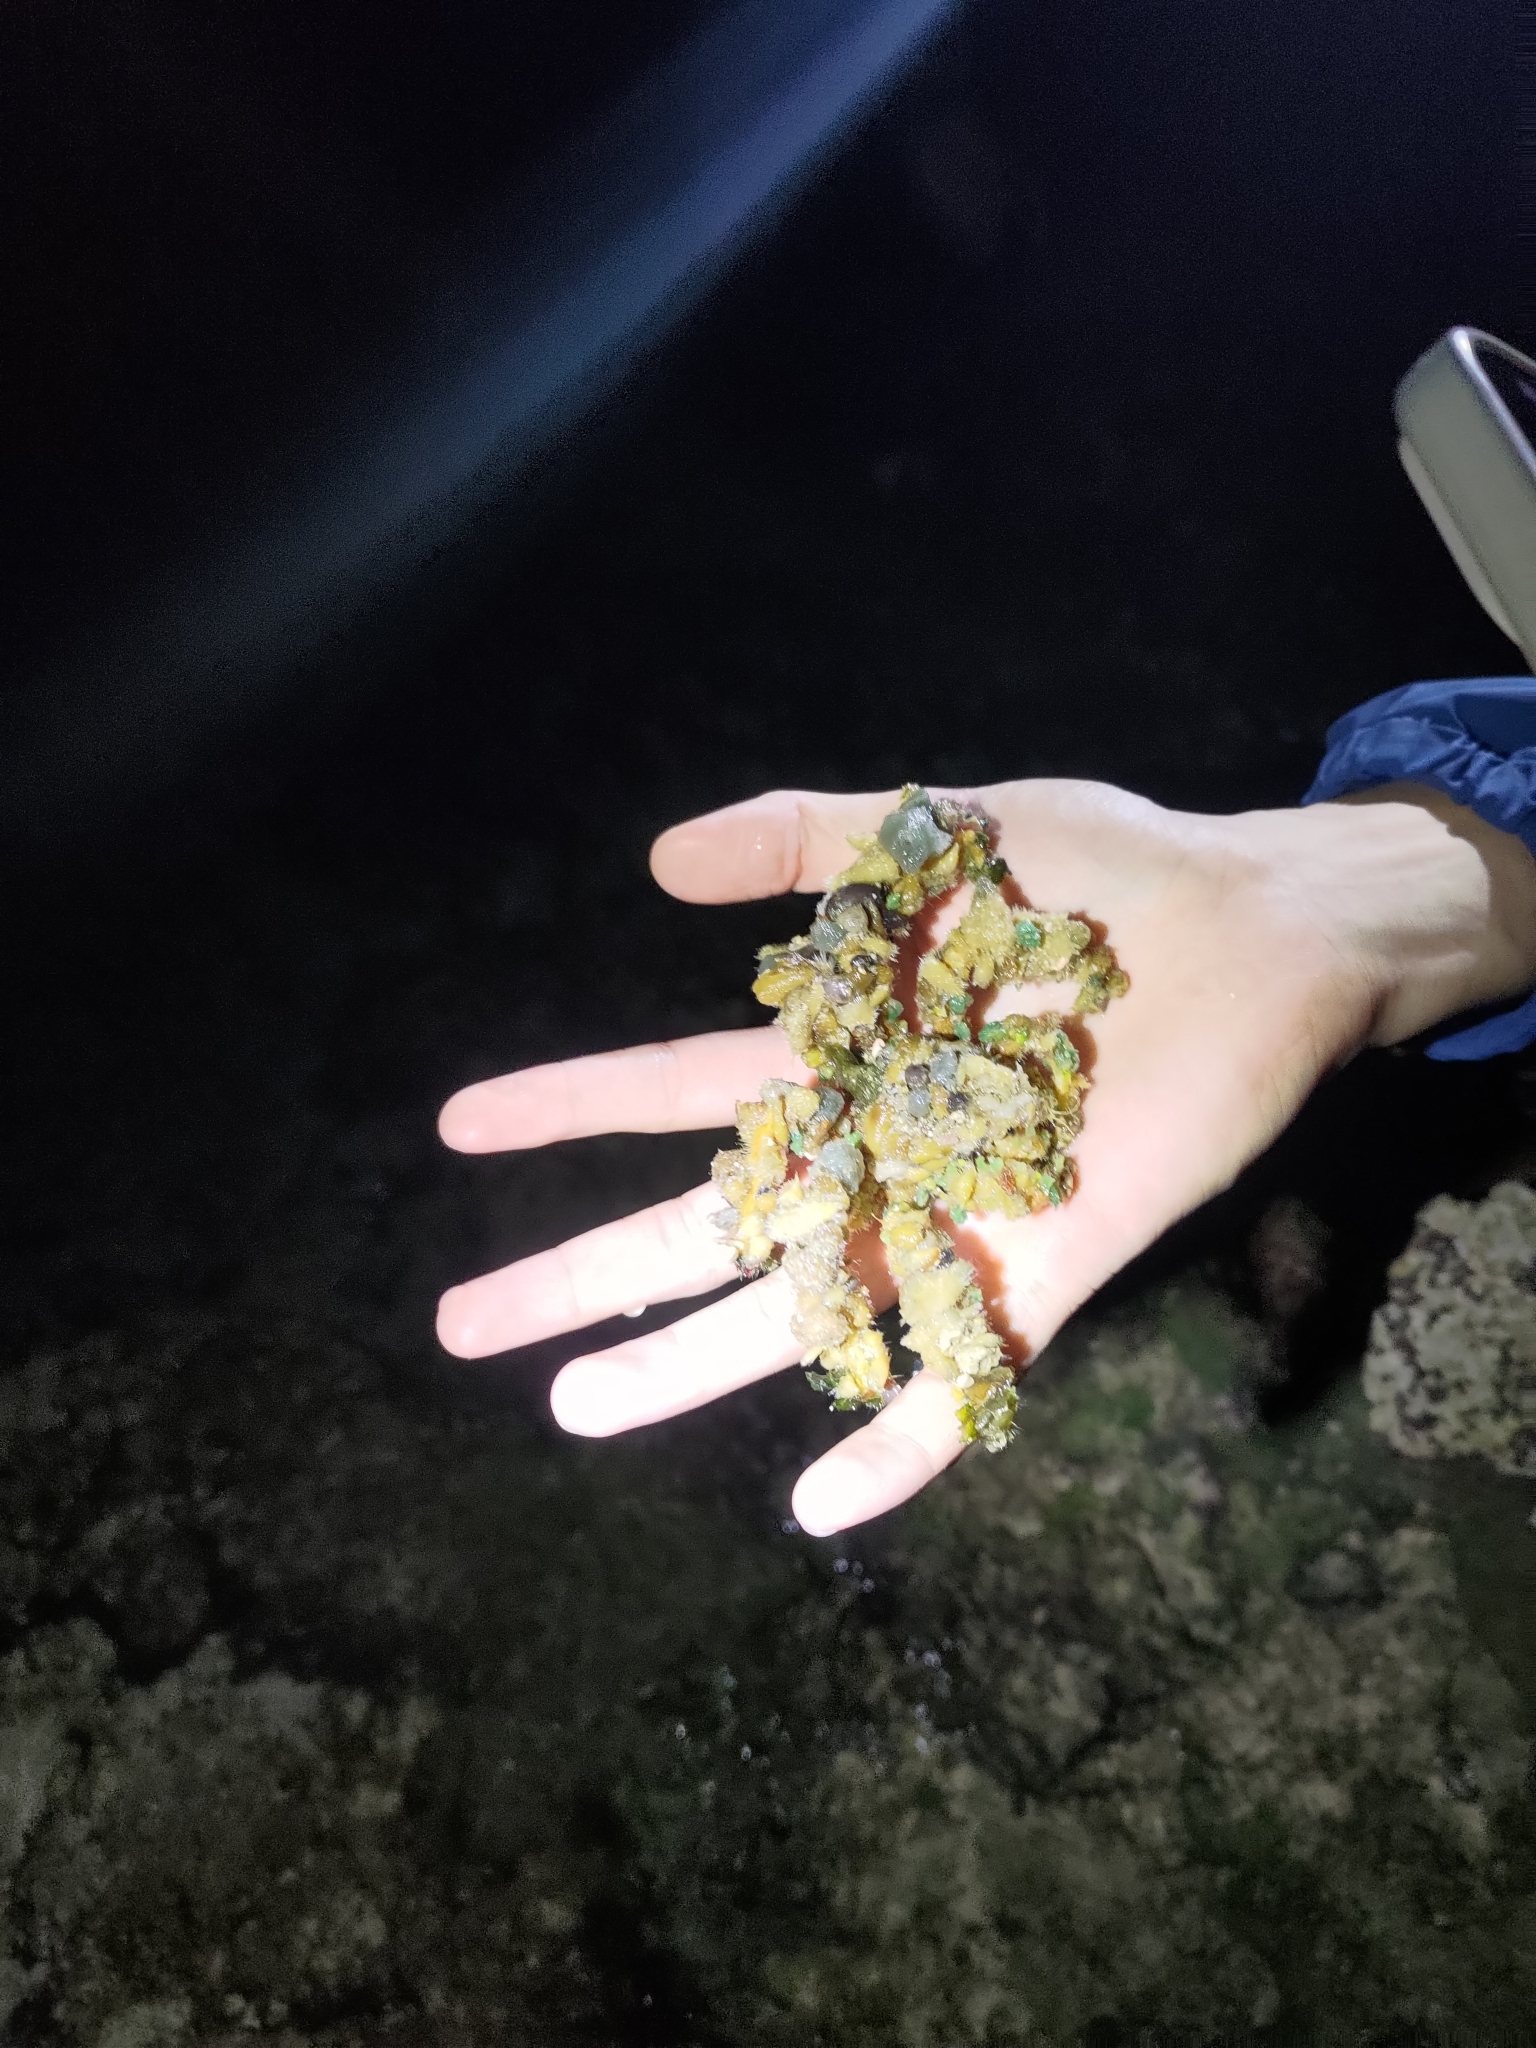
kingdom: Animalia
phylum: Arthropoda
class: Malacostraca
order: Decapoda
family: Inachidae
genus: Camposcia
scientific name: Camposcia retusa
